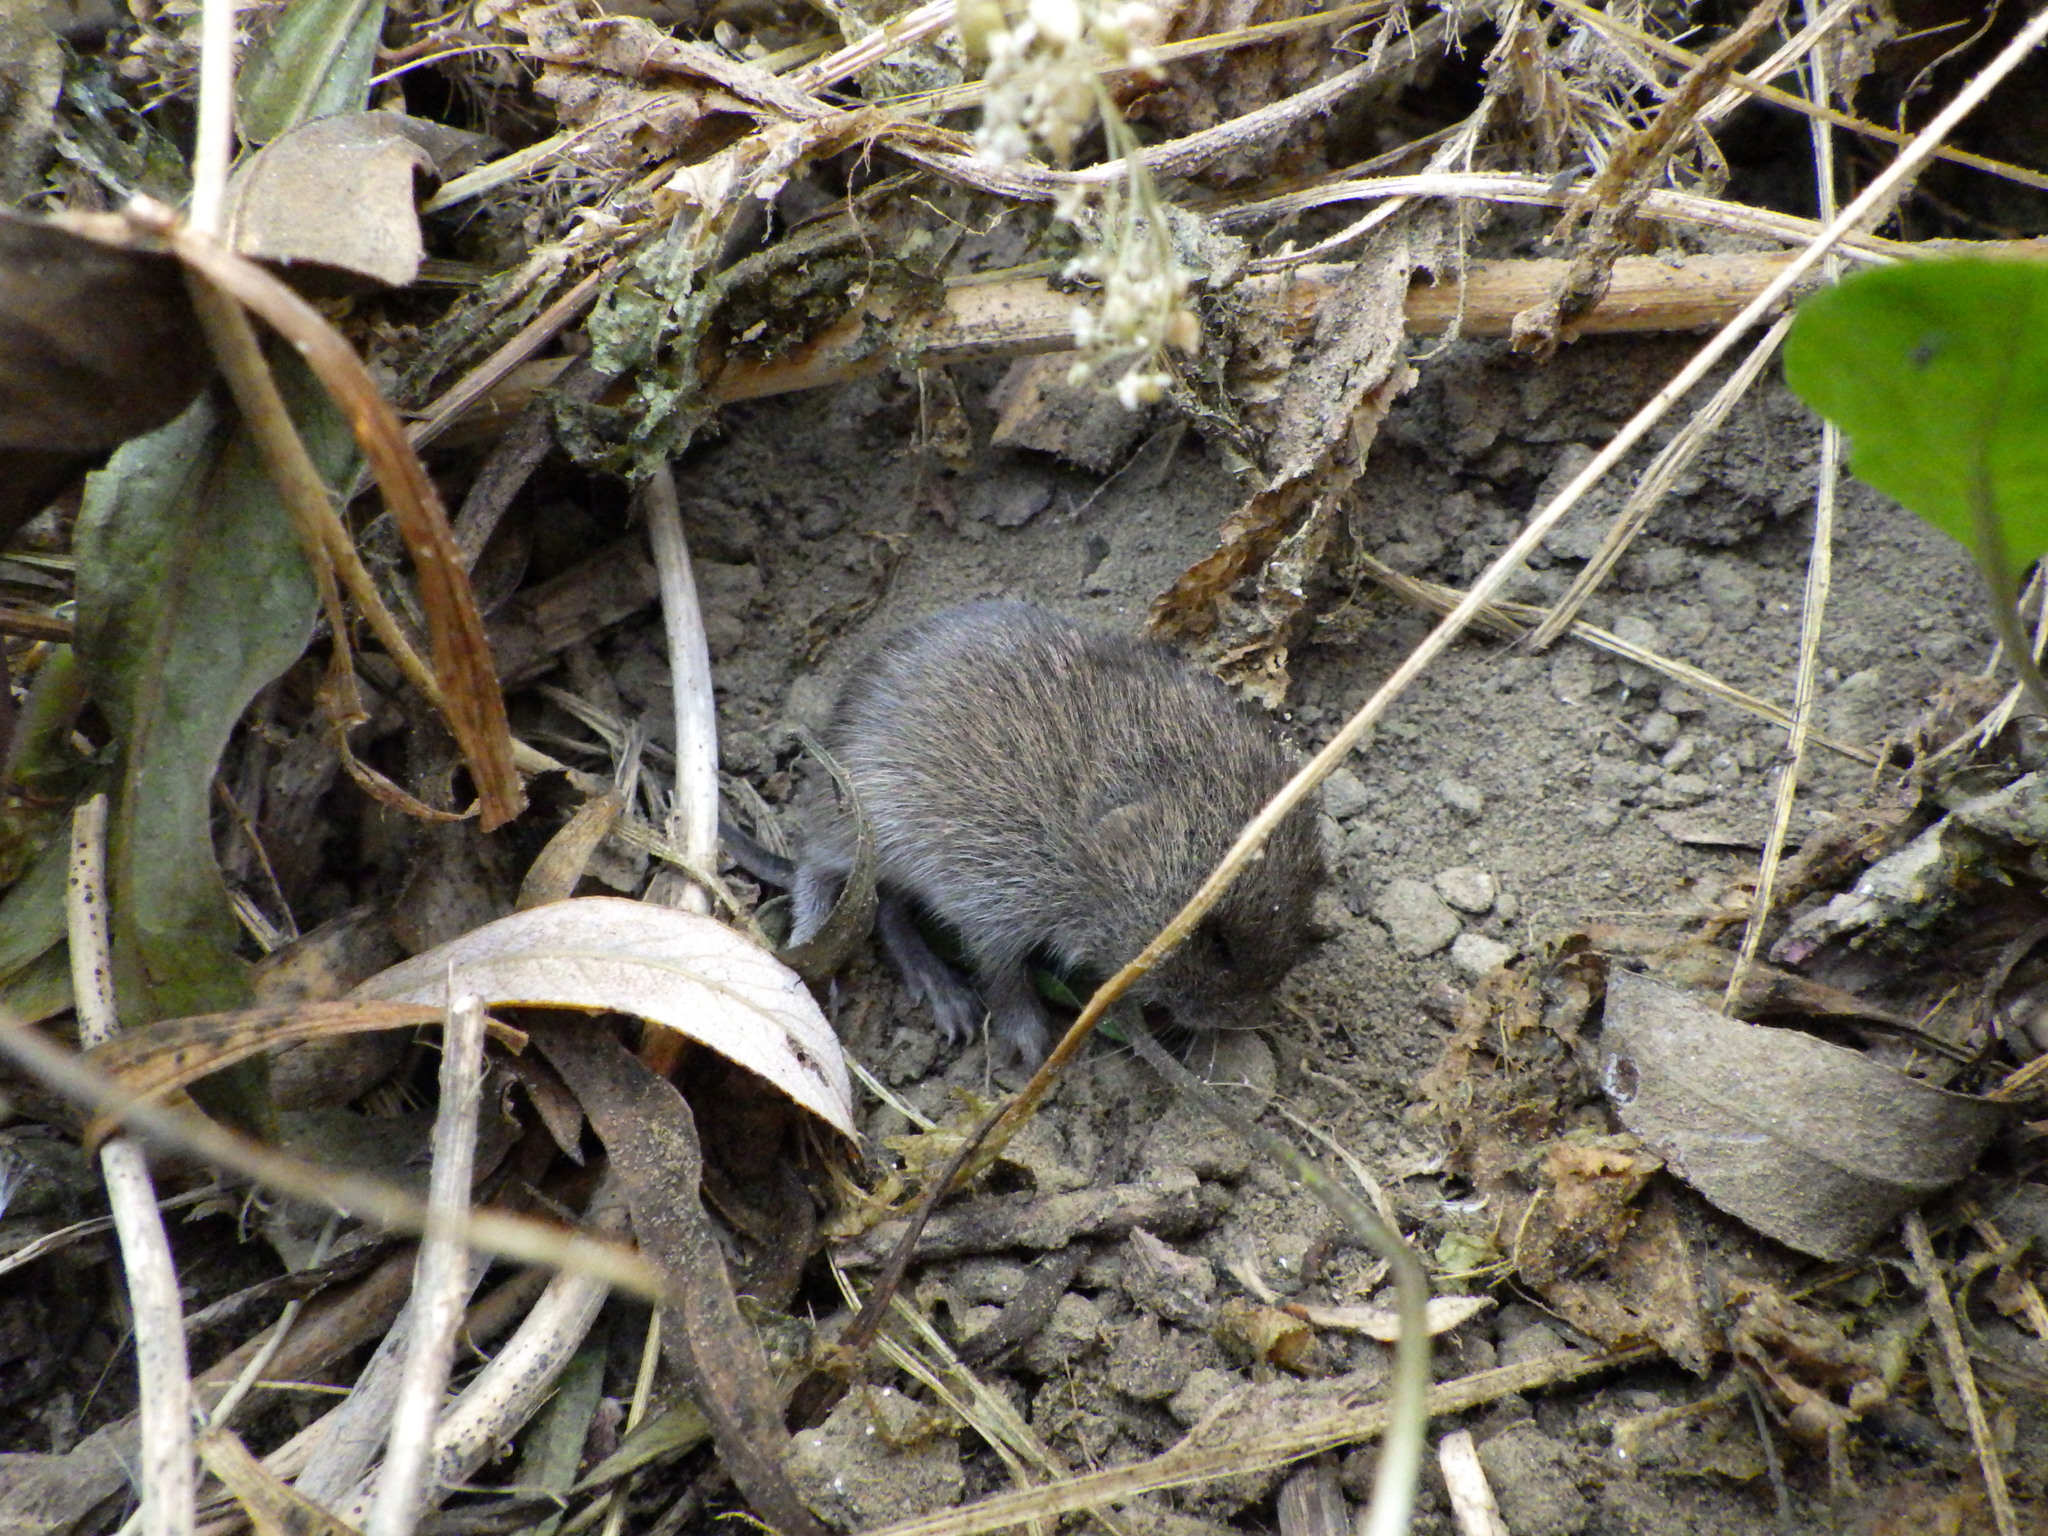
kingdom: Animalia
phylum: Chordata
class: Mammalia
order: Rodentia
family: Cricetidae
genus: Microtus
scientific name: Microtus californicus
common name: California vole
